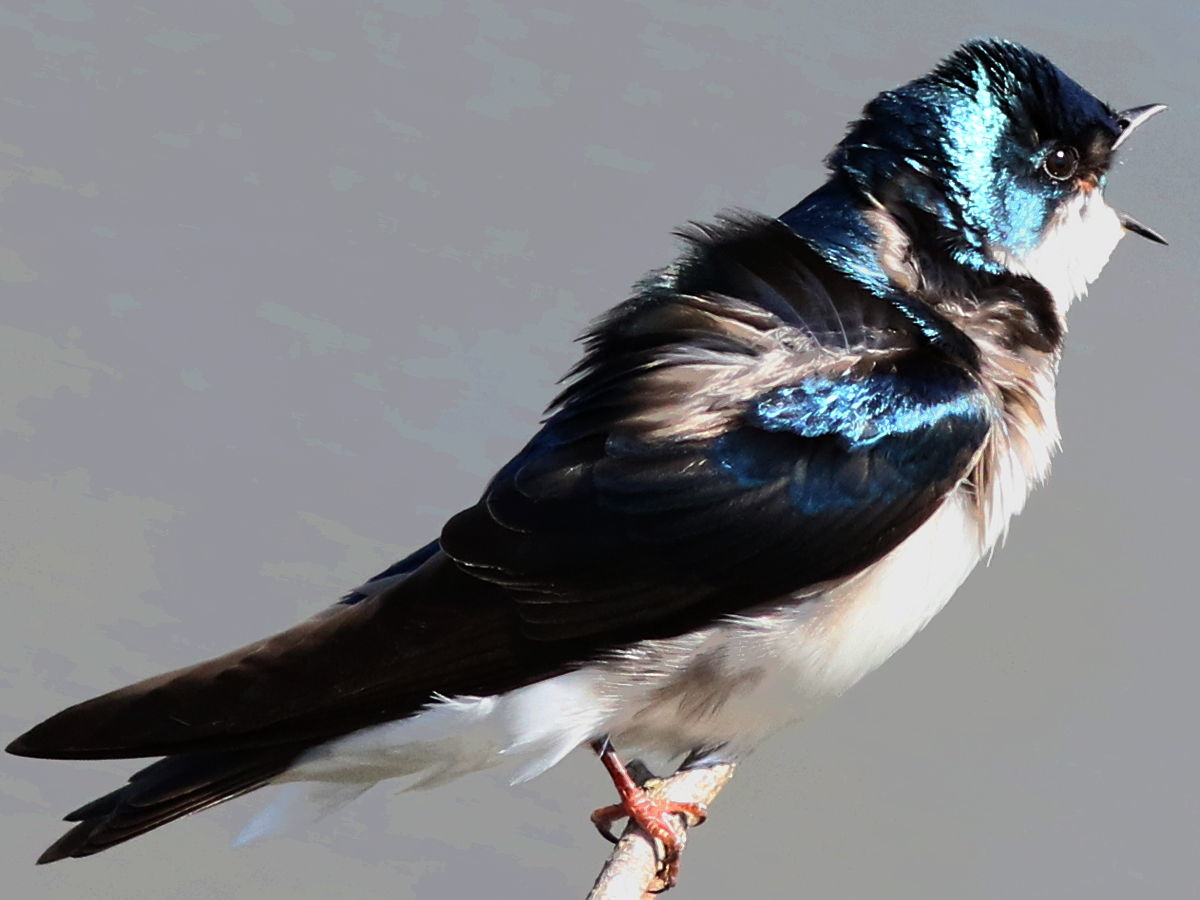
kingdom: Animalia
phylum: Chordata
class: Aves
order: Passeriformes
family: Hirundinidae
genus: Tachycineta
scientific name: Tachycineta bicolor
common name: Tree swallow
